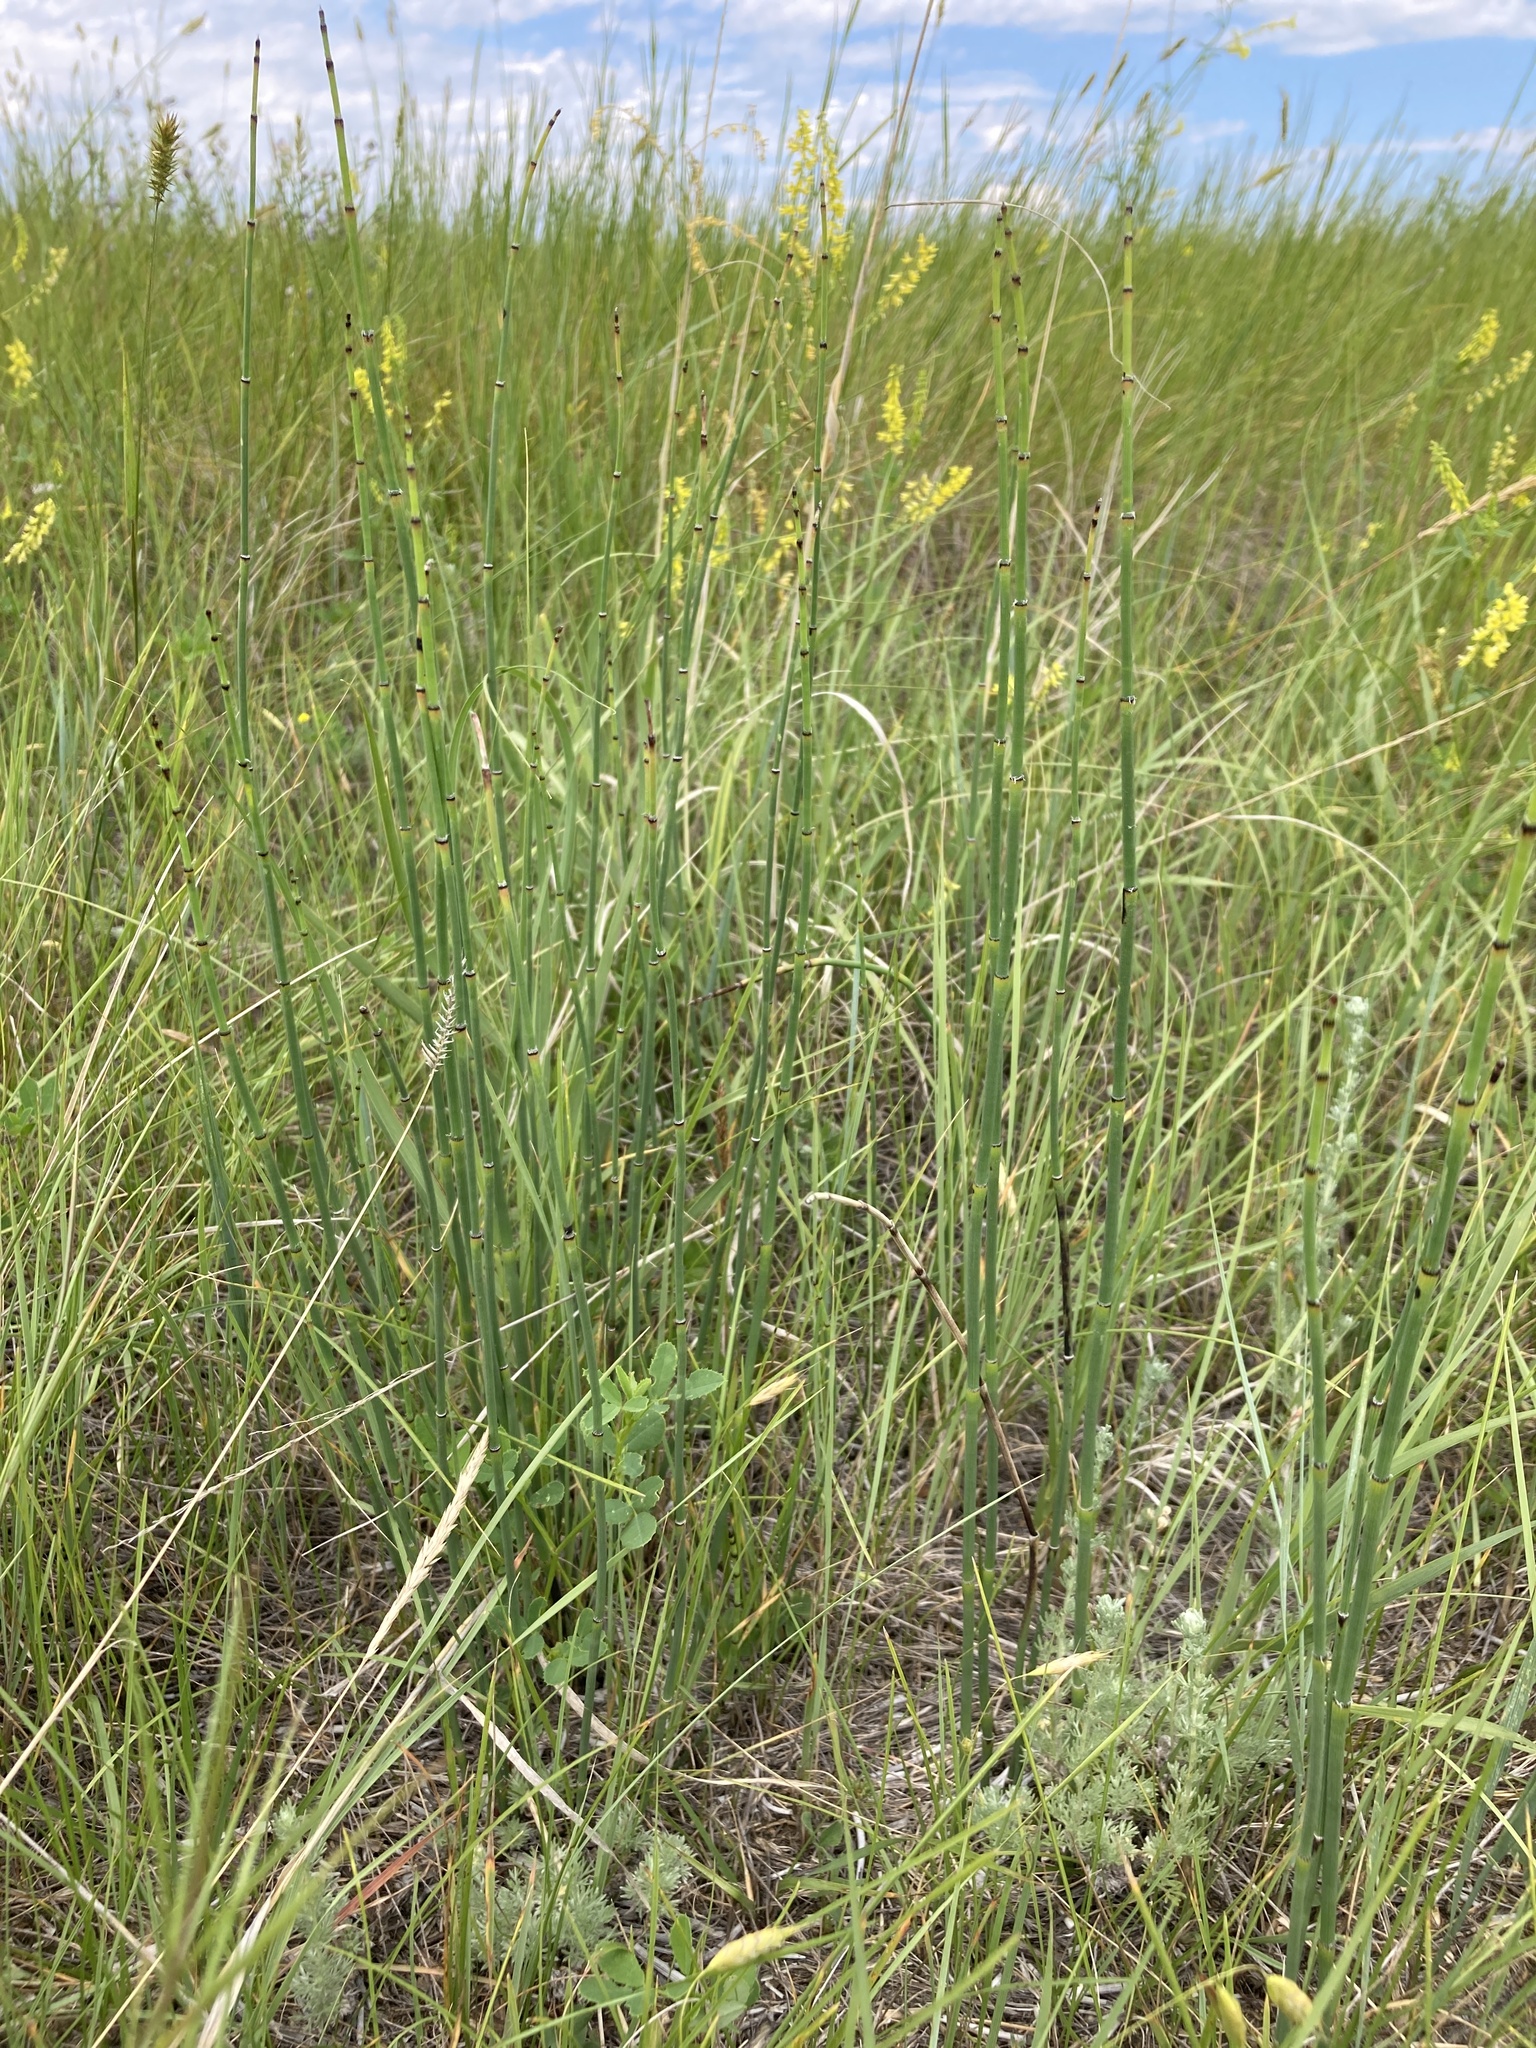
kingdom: Plantae
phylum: Tracheophyta
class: Polypodiopsida
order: Equisetales
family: Equisetaceae
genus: Equisetum
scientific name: Equisetum laevigatum
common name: Smooth scouring-rush
